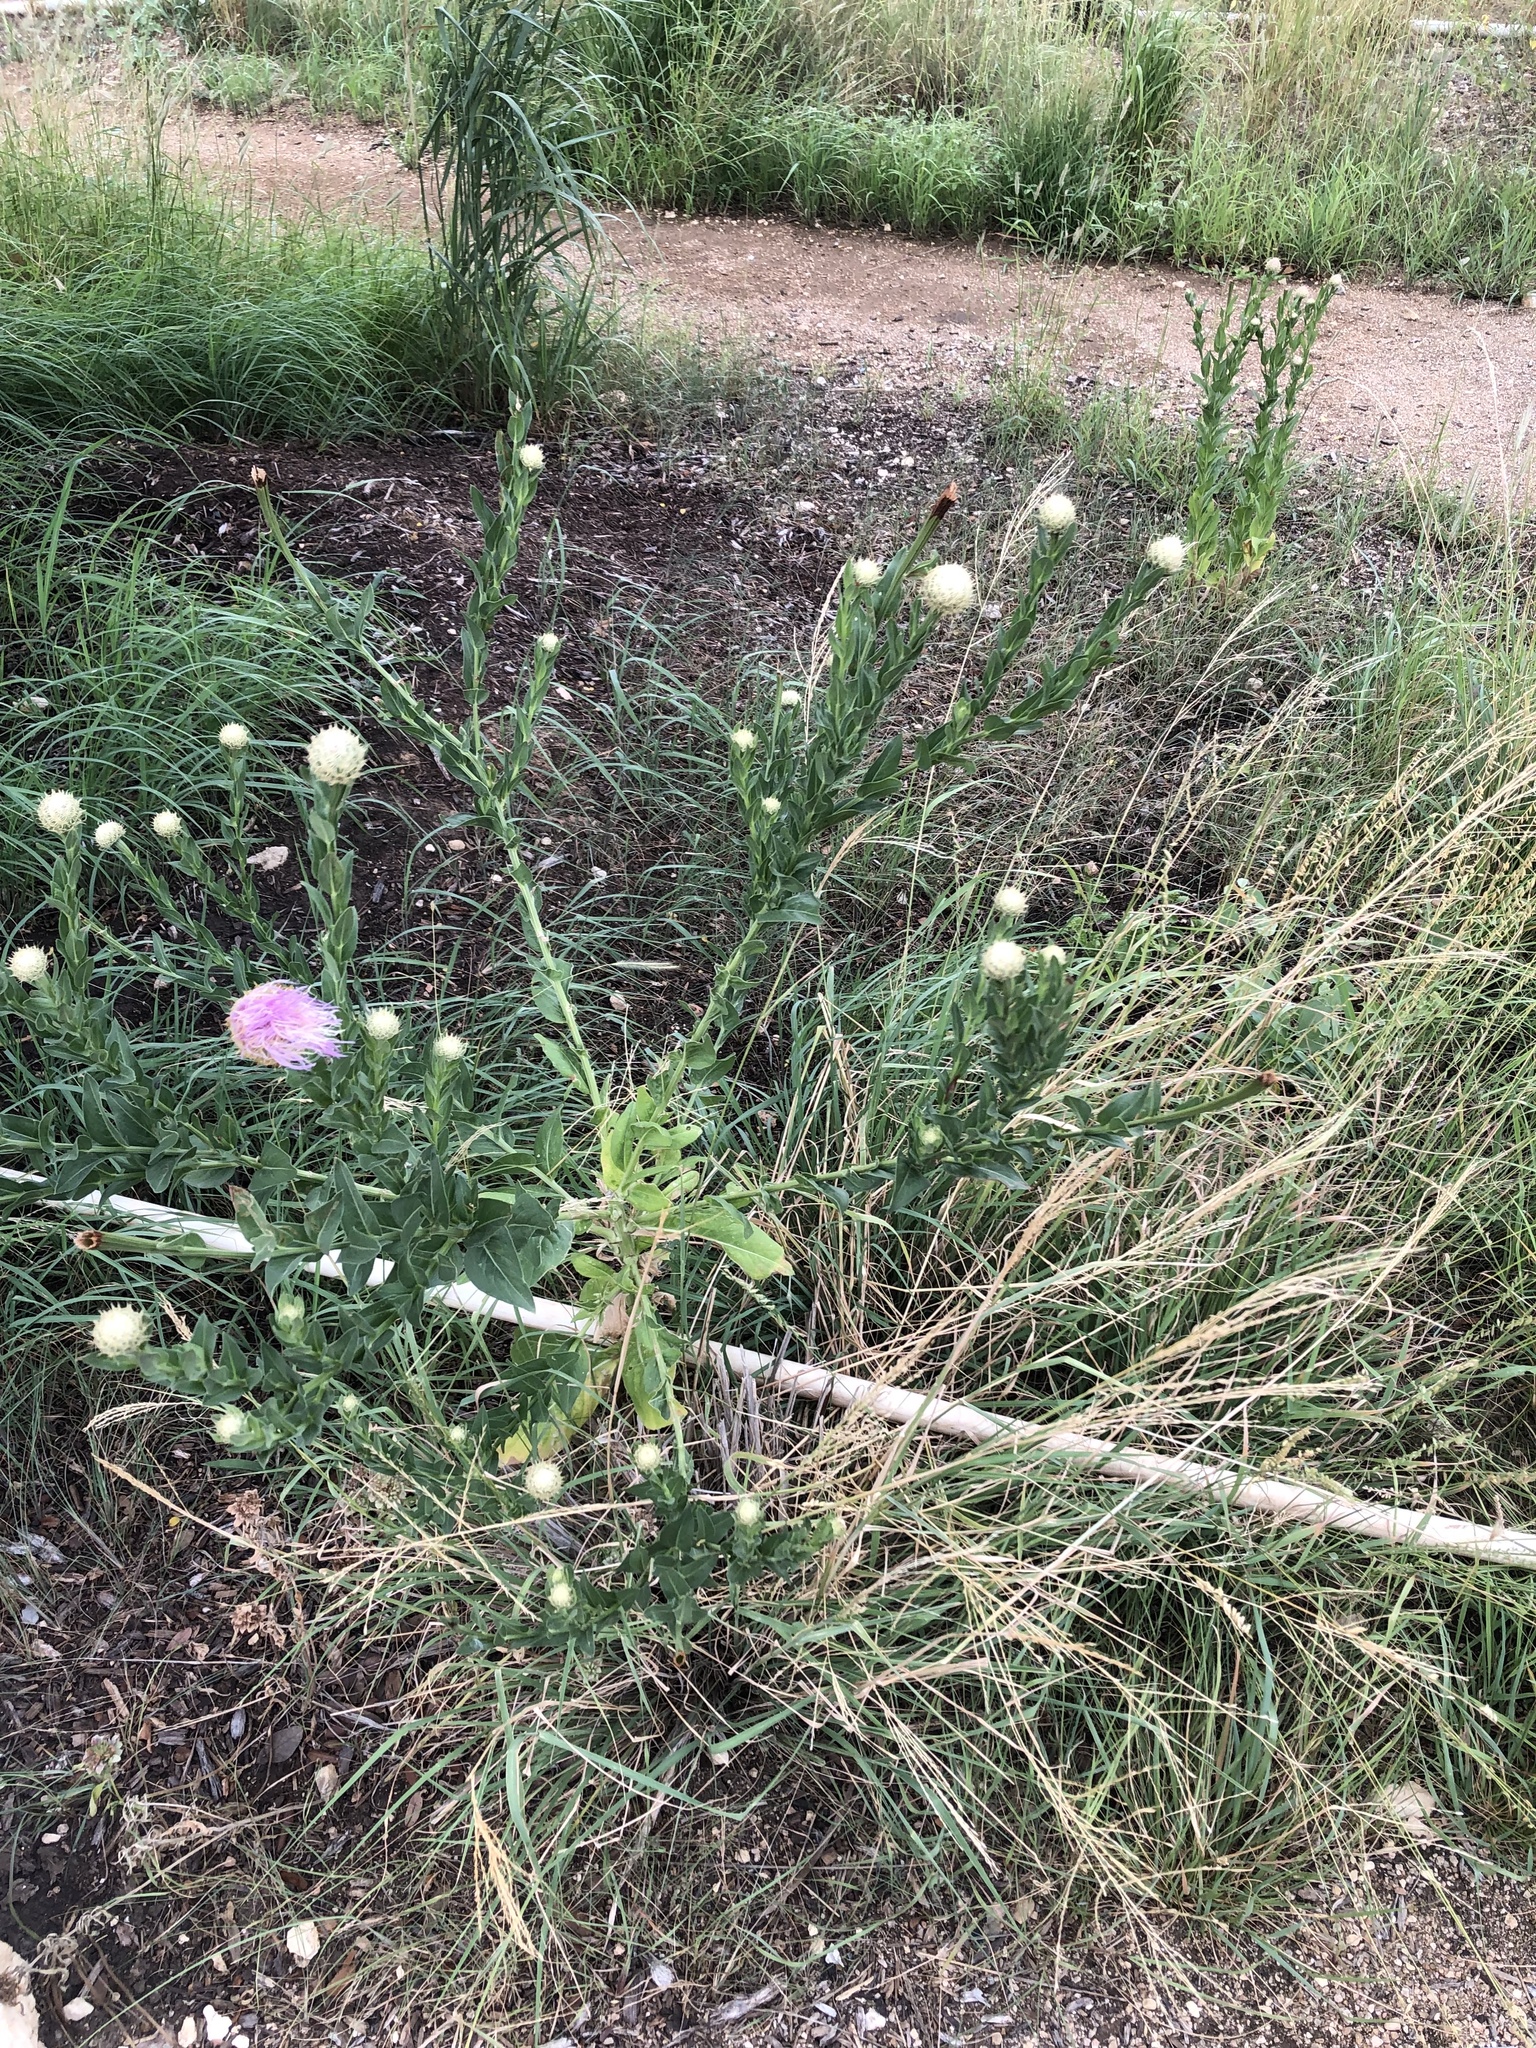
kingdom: Plantae
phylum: Tracheophyta
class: Magnoliopsida
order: Asterales
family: Asteraceae
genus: Plectocephalus
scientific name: Plectocephalus americanus
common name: American basket-flower
